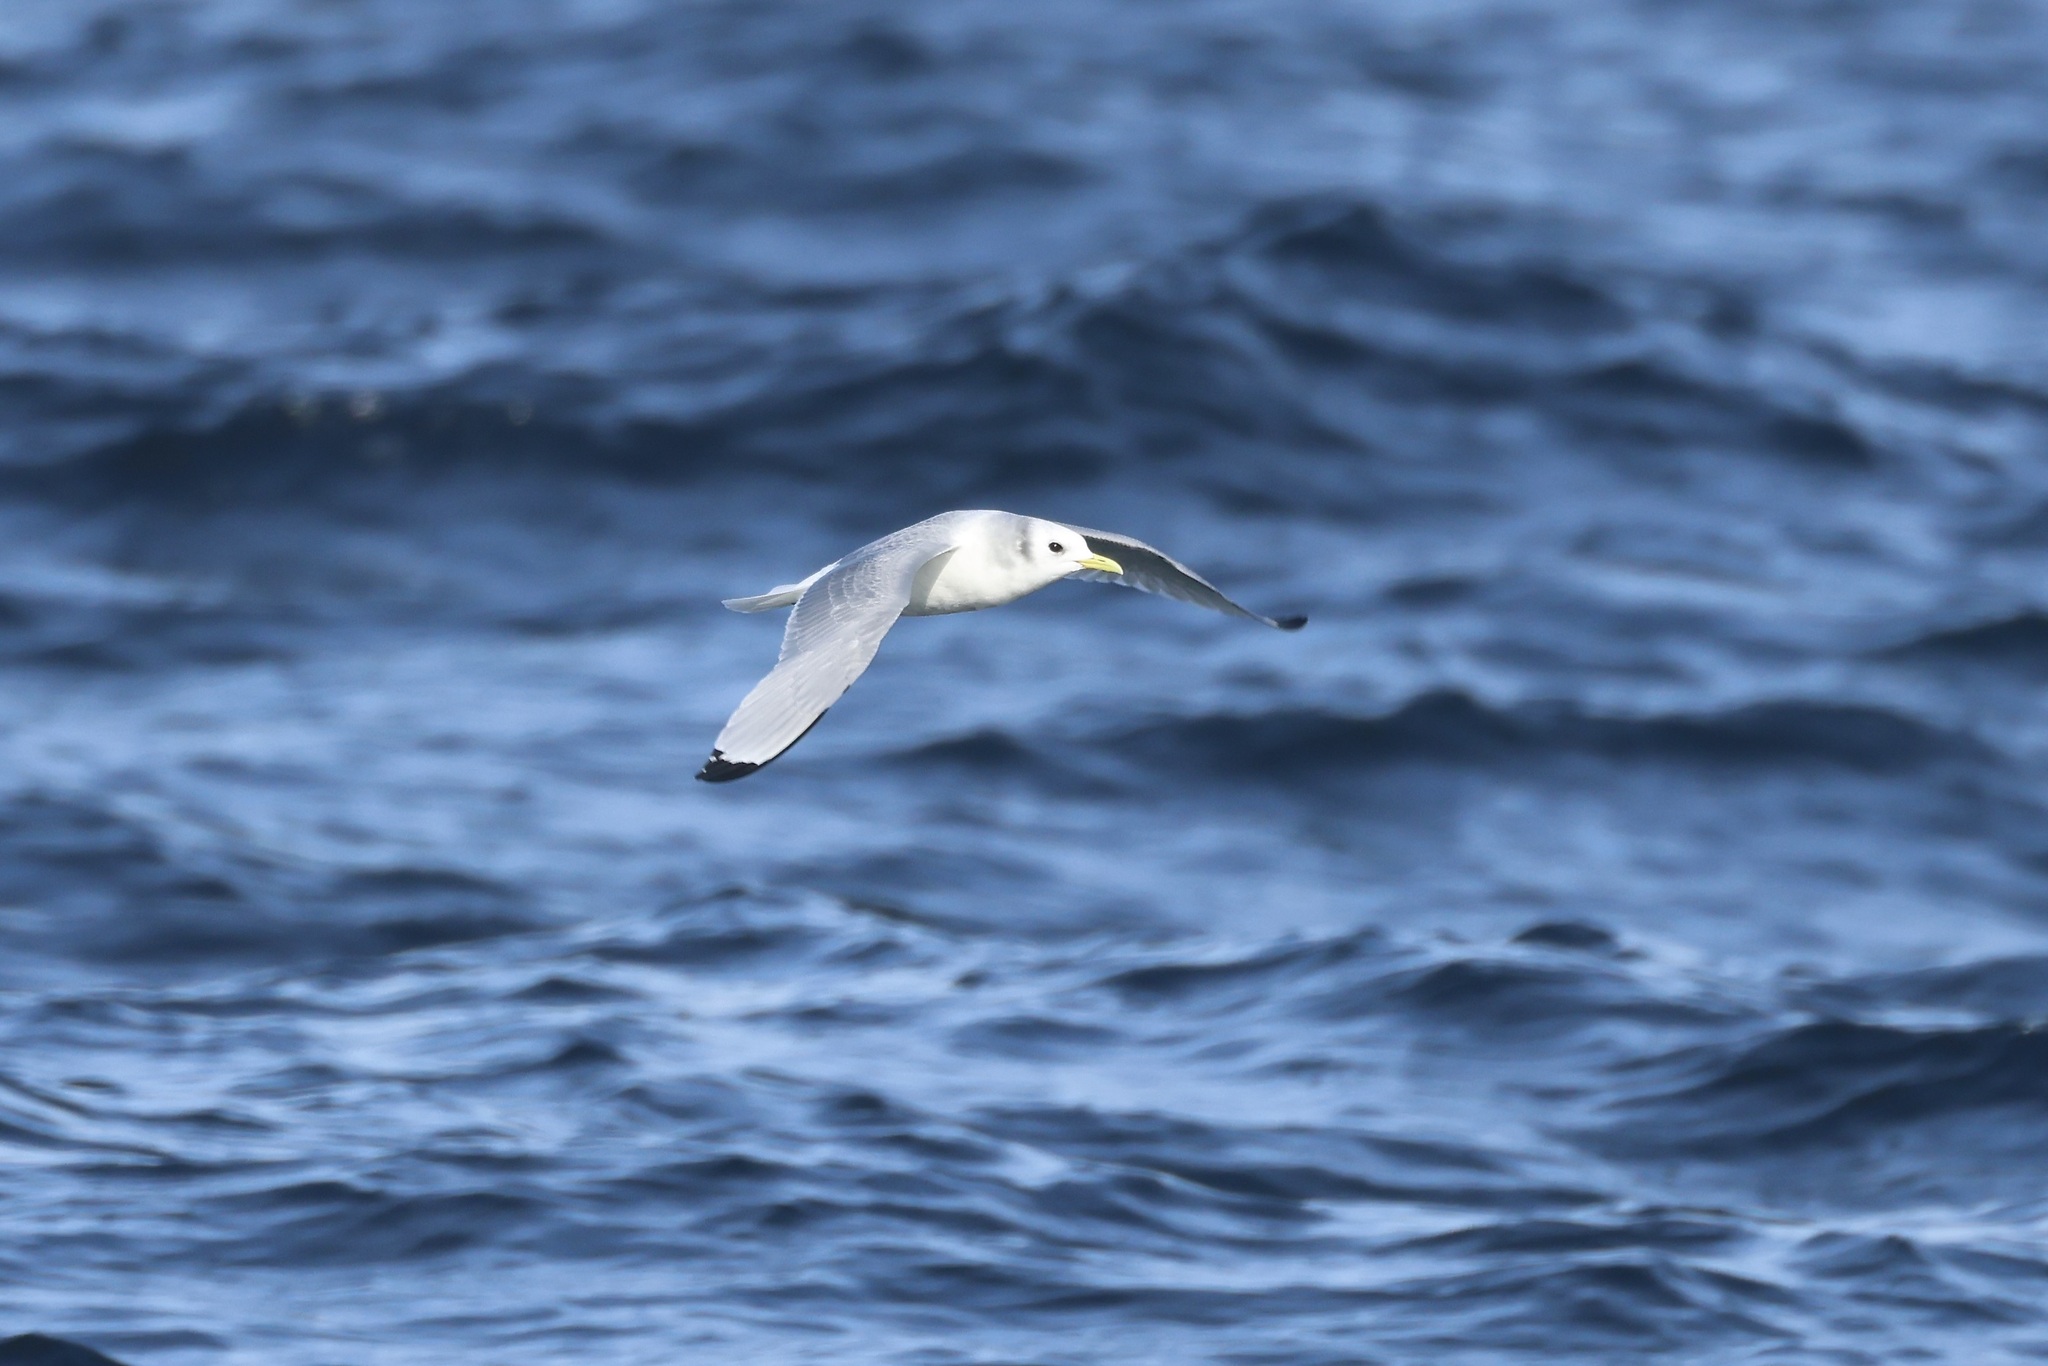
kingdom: Animalia
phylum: Chordata
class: Aves
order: Charadriiformes
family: Laridae
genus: Rissa
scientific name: Rissa tridactyla
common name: Black-legged kittiwake
